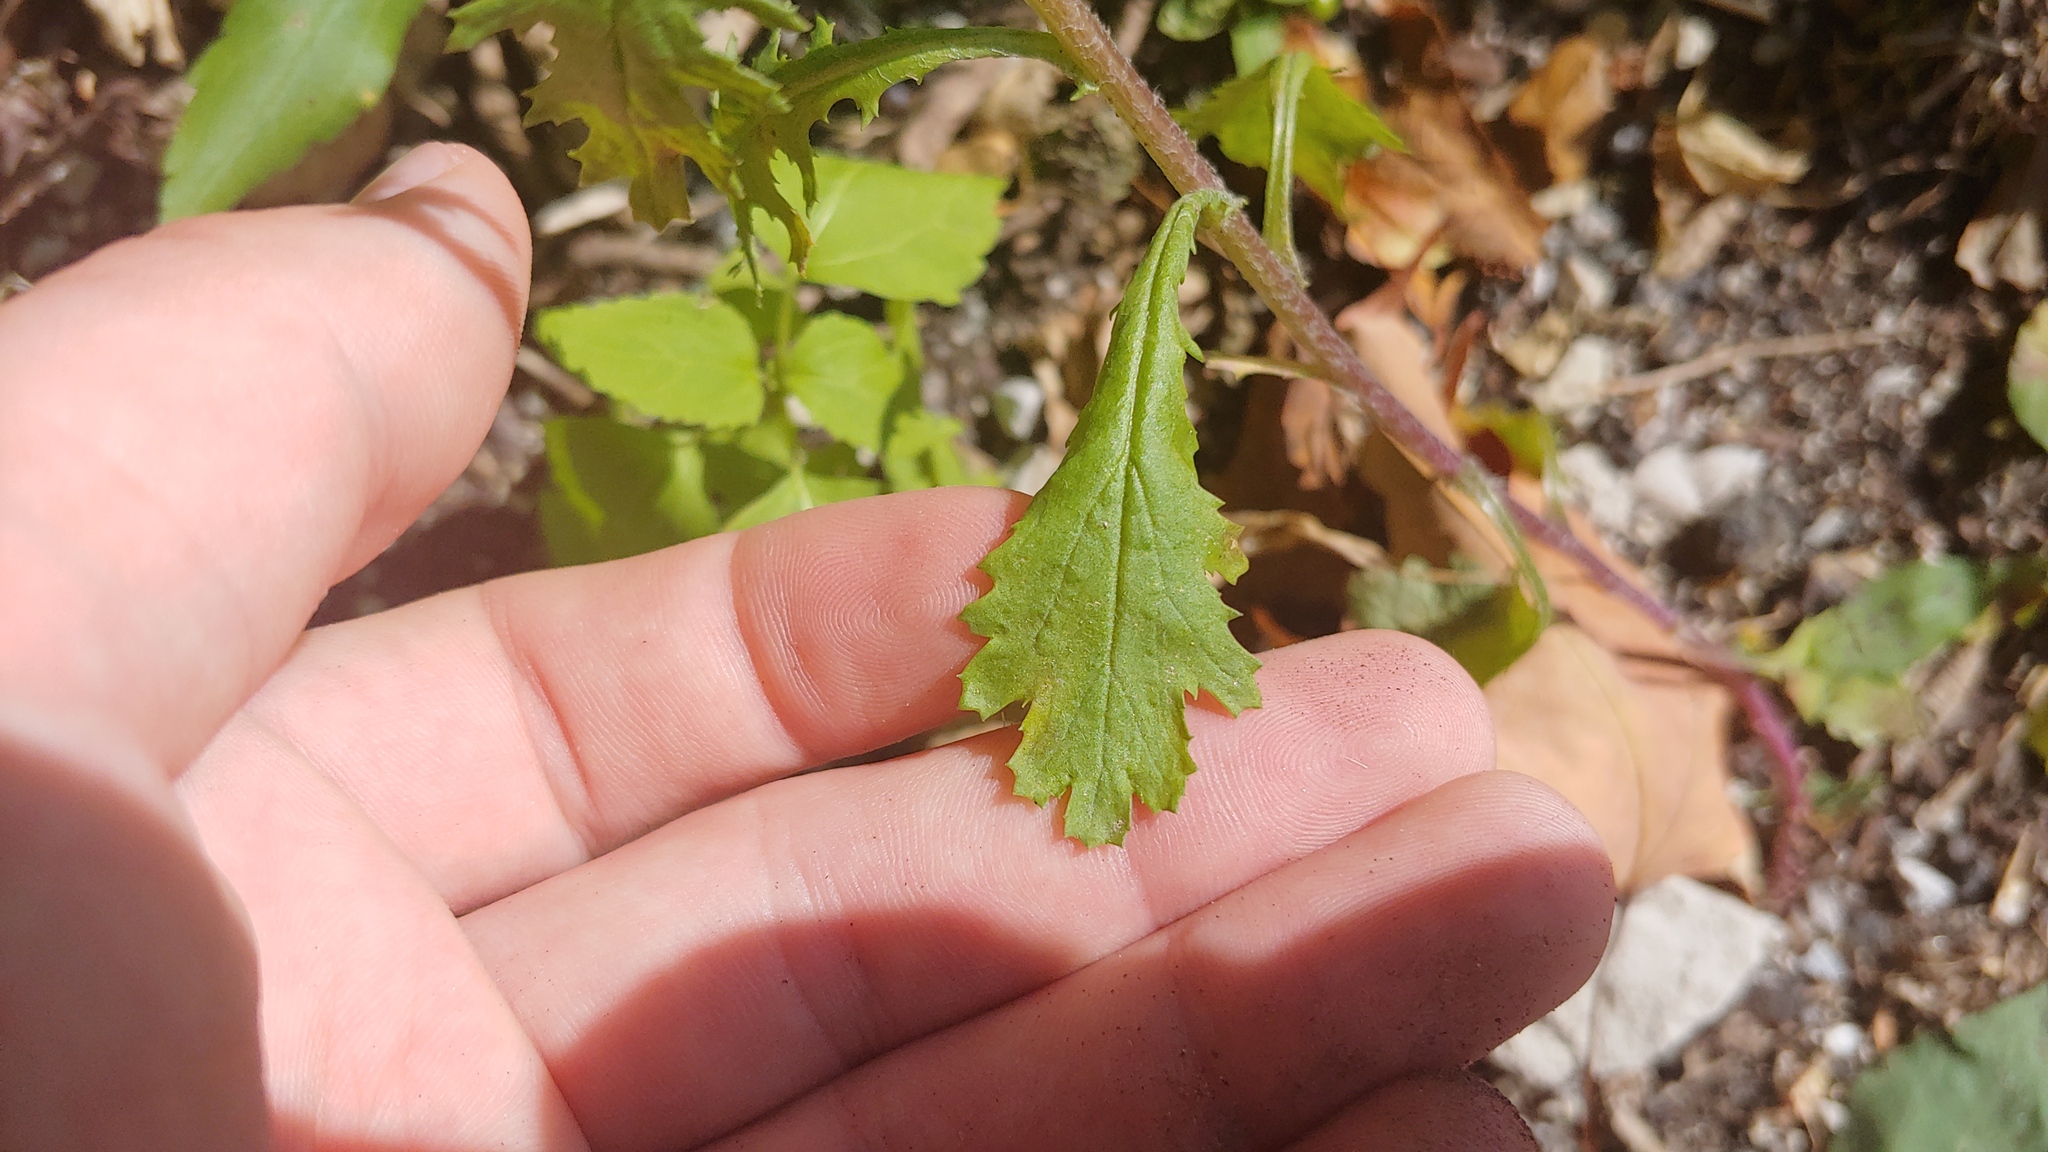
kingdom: Plantae
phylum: Tracheophyta
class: Magnoliopsida
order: Asterales
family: Asteraceae
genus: Senecio
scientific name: Senecio vulgaris
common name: Old-man-in-the-spring
